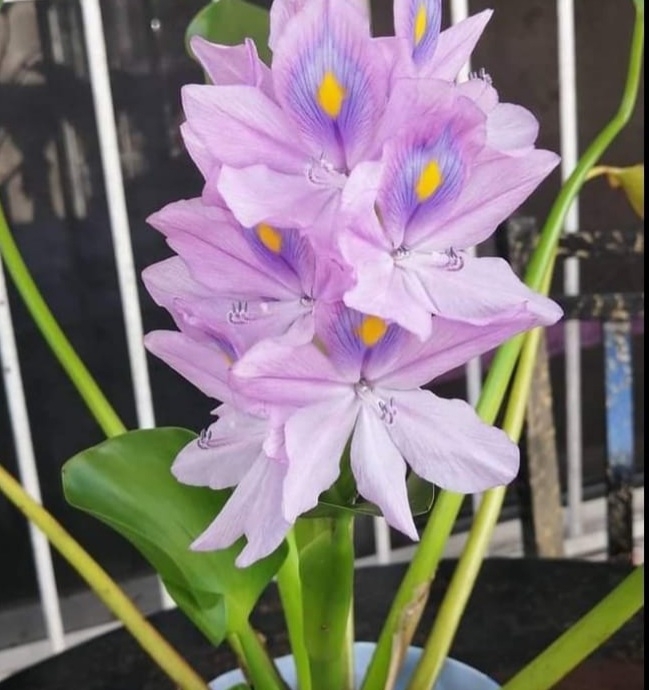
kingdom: Plantae
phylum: Tracheophyta
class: Liliopsida
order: Commelinales
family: Pontederiaceae
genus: Pontederia
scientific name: Pontederia crassipes
